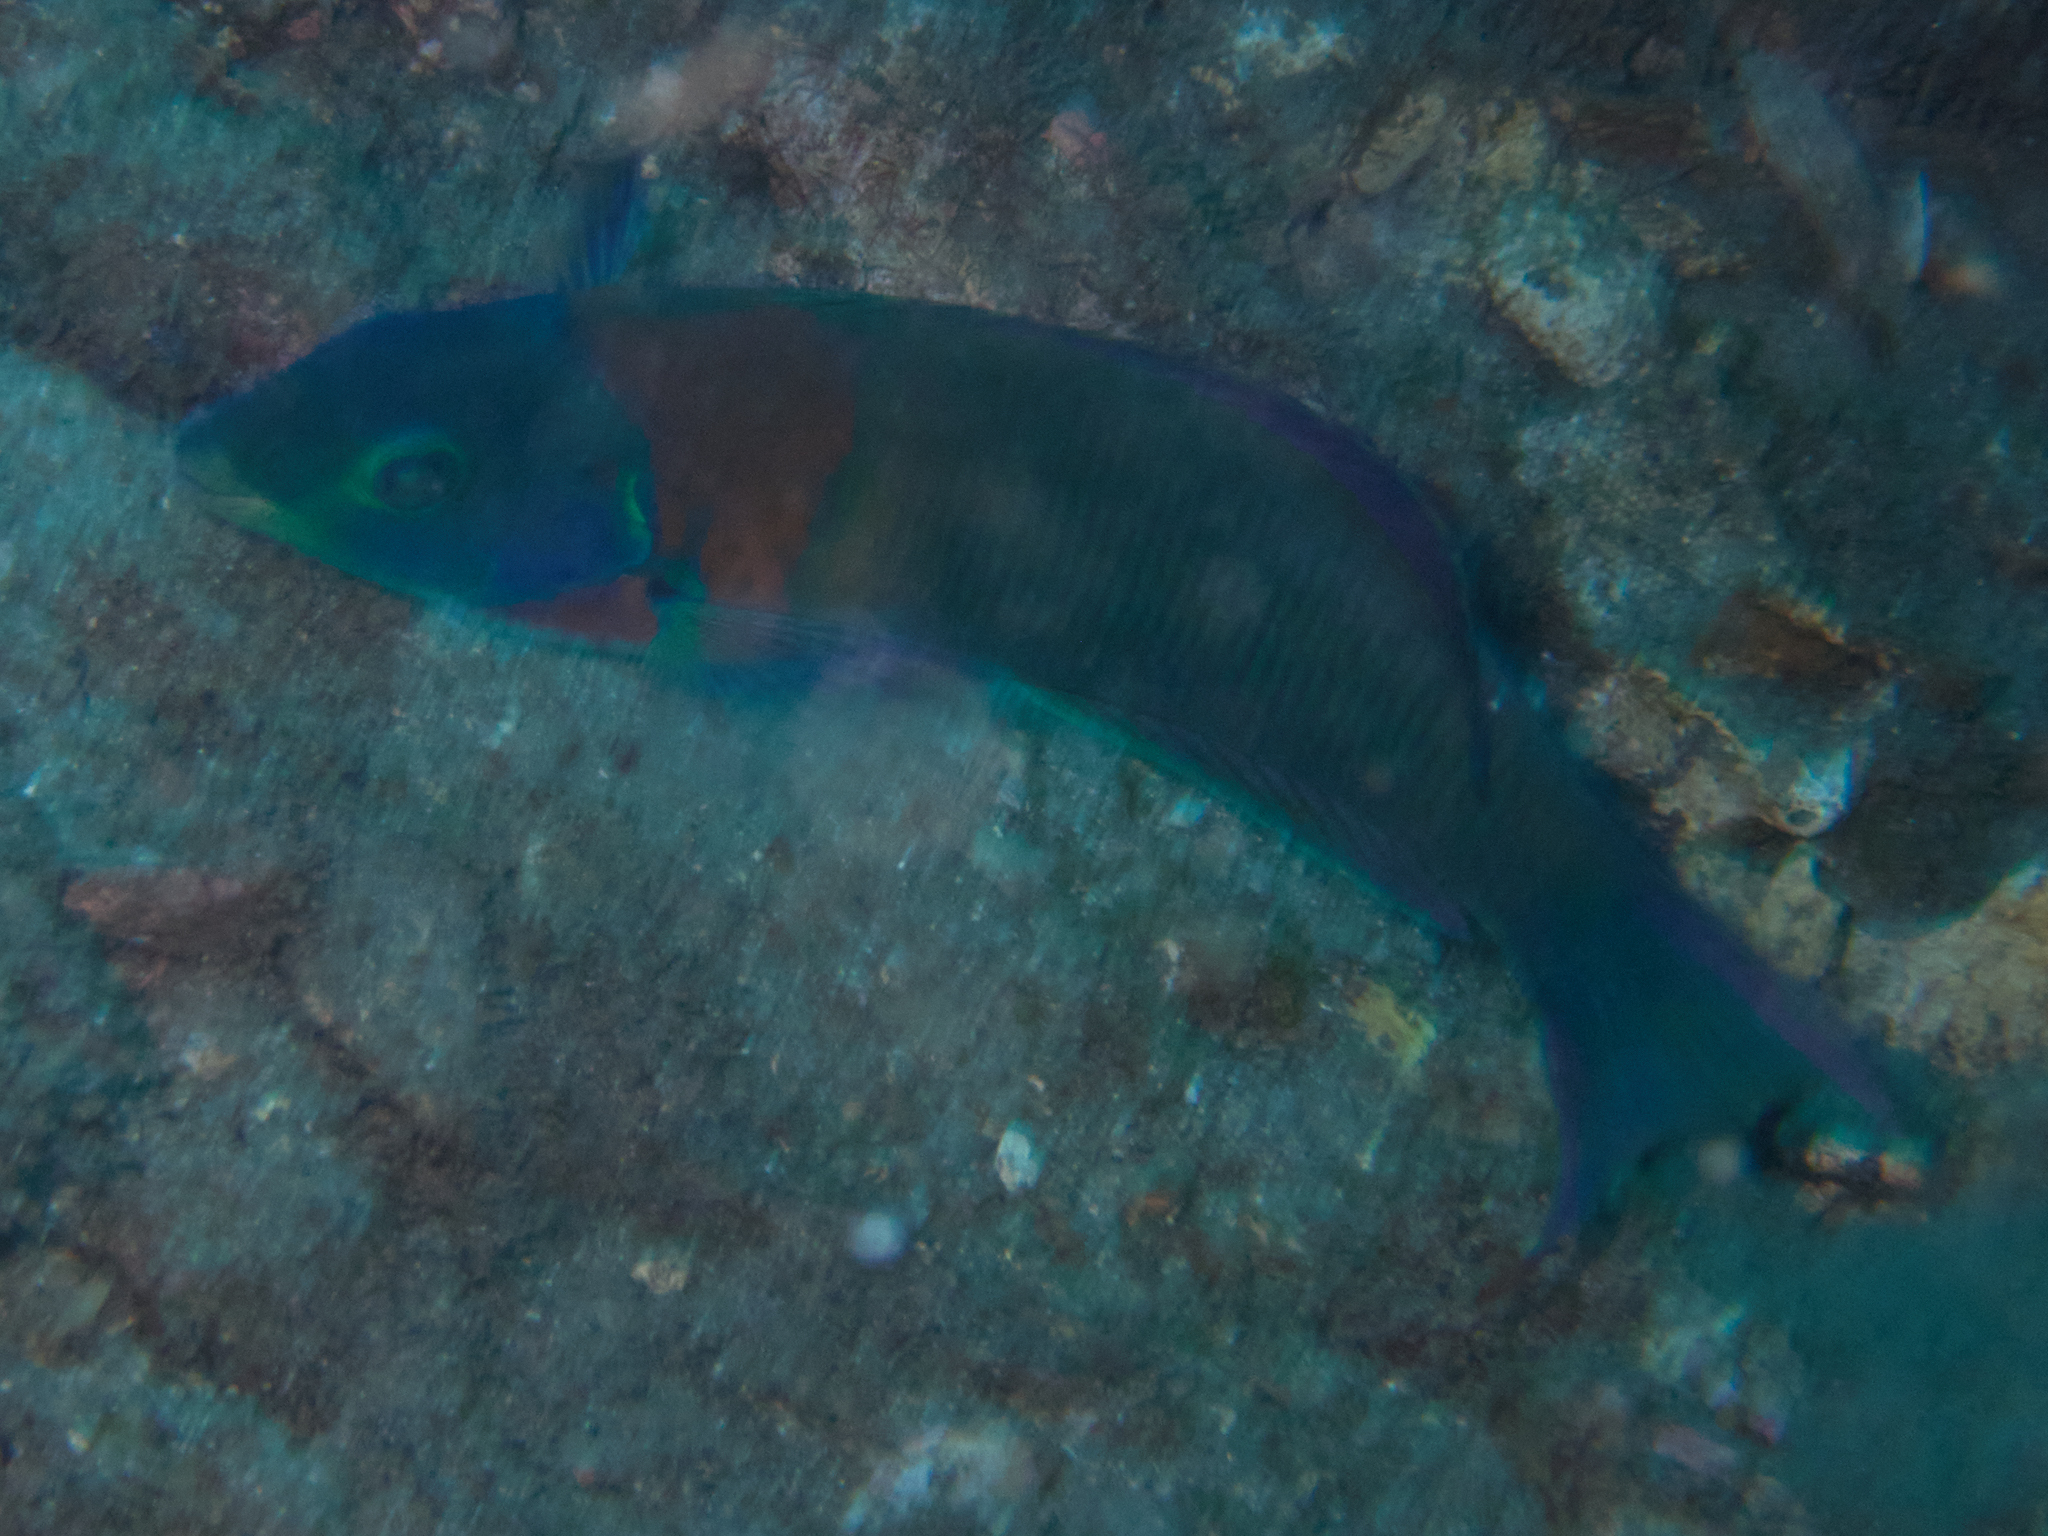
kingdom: Animalia
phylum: Chordata
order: Perciformes
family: Labridae
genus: Thalassoma
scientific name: Thalassoma duperrey
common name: Saddle wrasse
